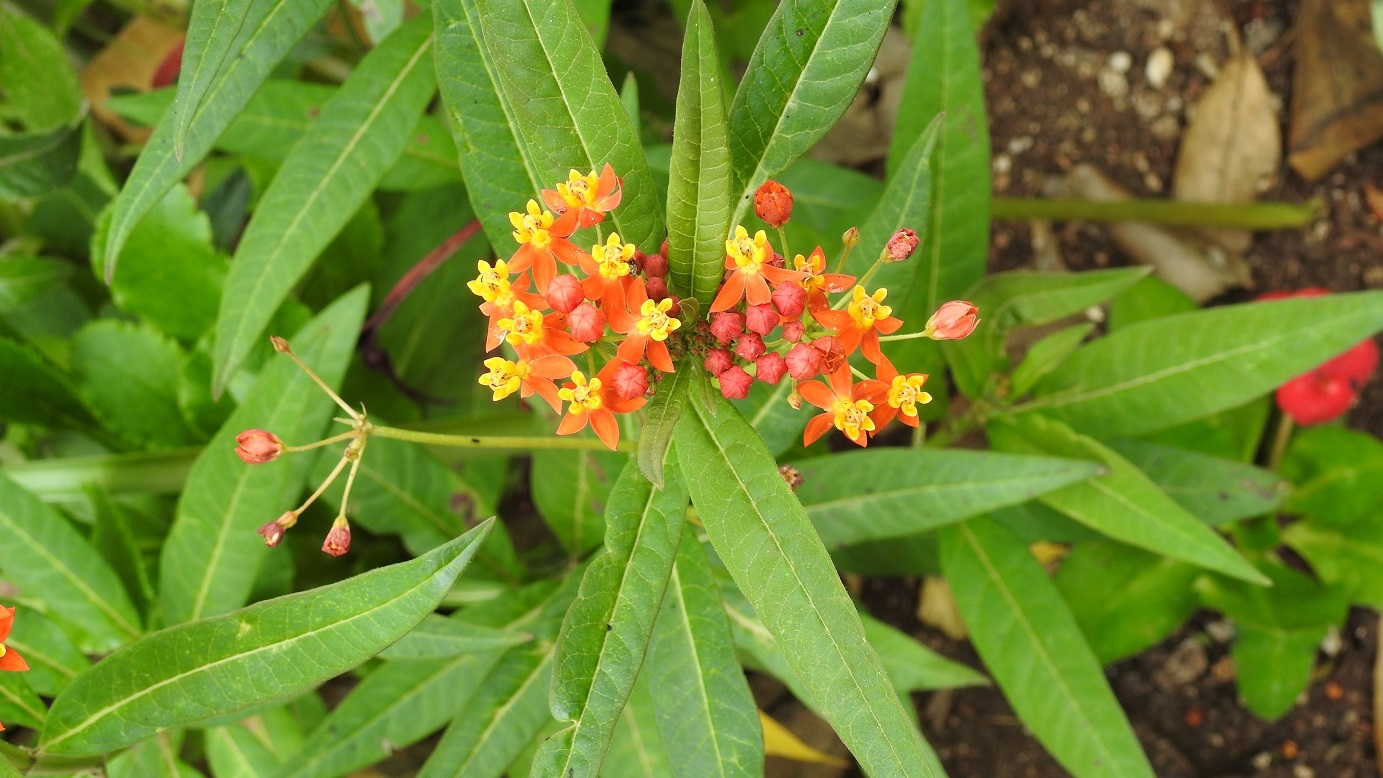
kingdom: Plantae
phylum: Tracheophyta
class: Magnoliopsida
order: Gentianales
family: Apocynaceae
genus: Asclepias
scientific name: Asclepias curassavica
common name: Bloodflower
